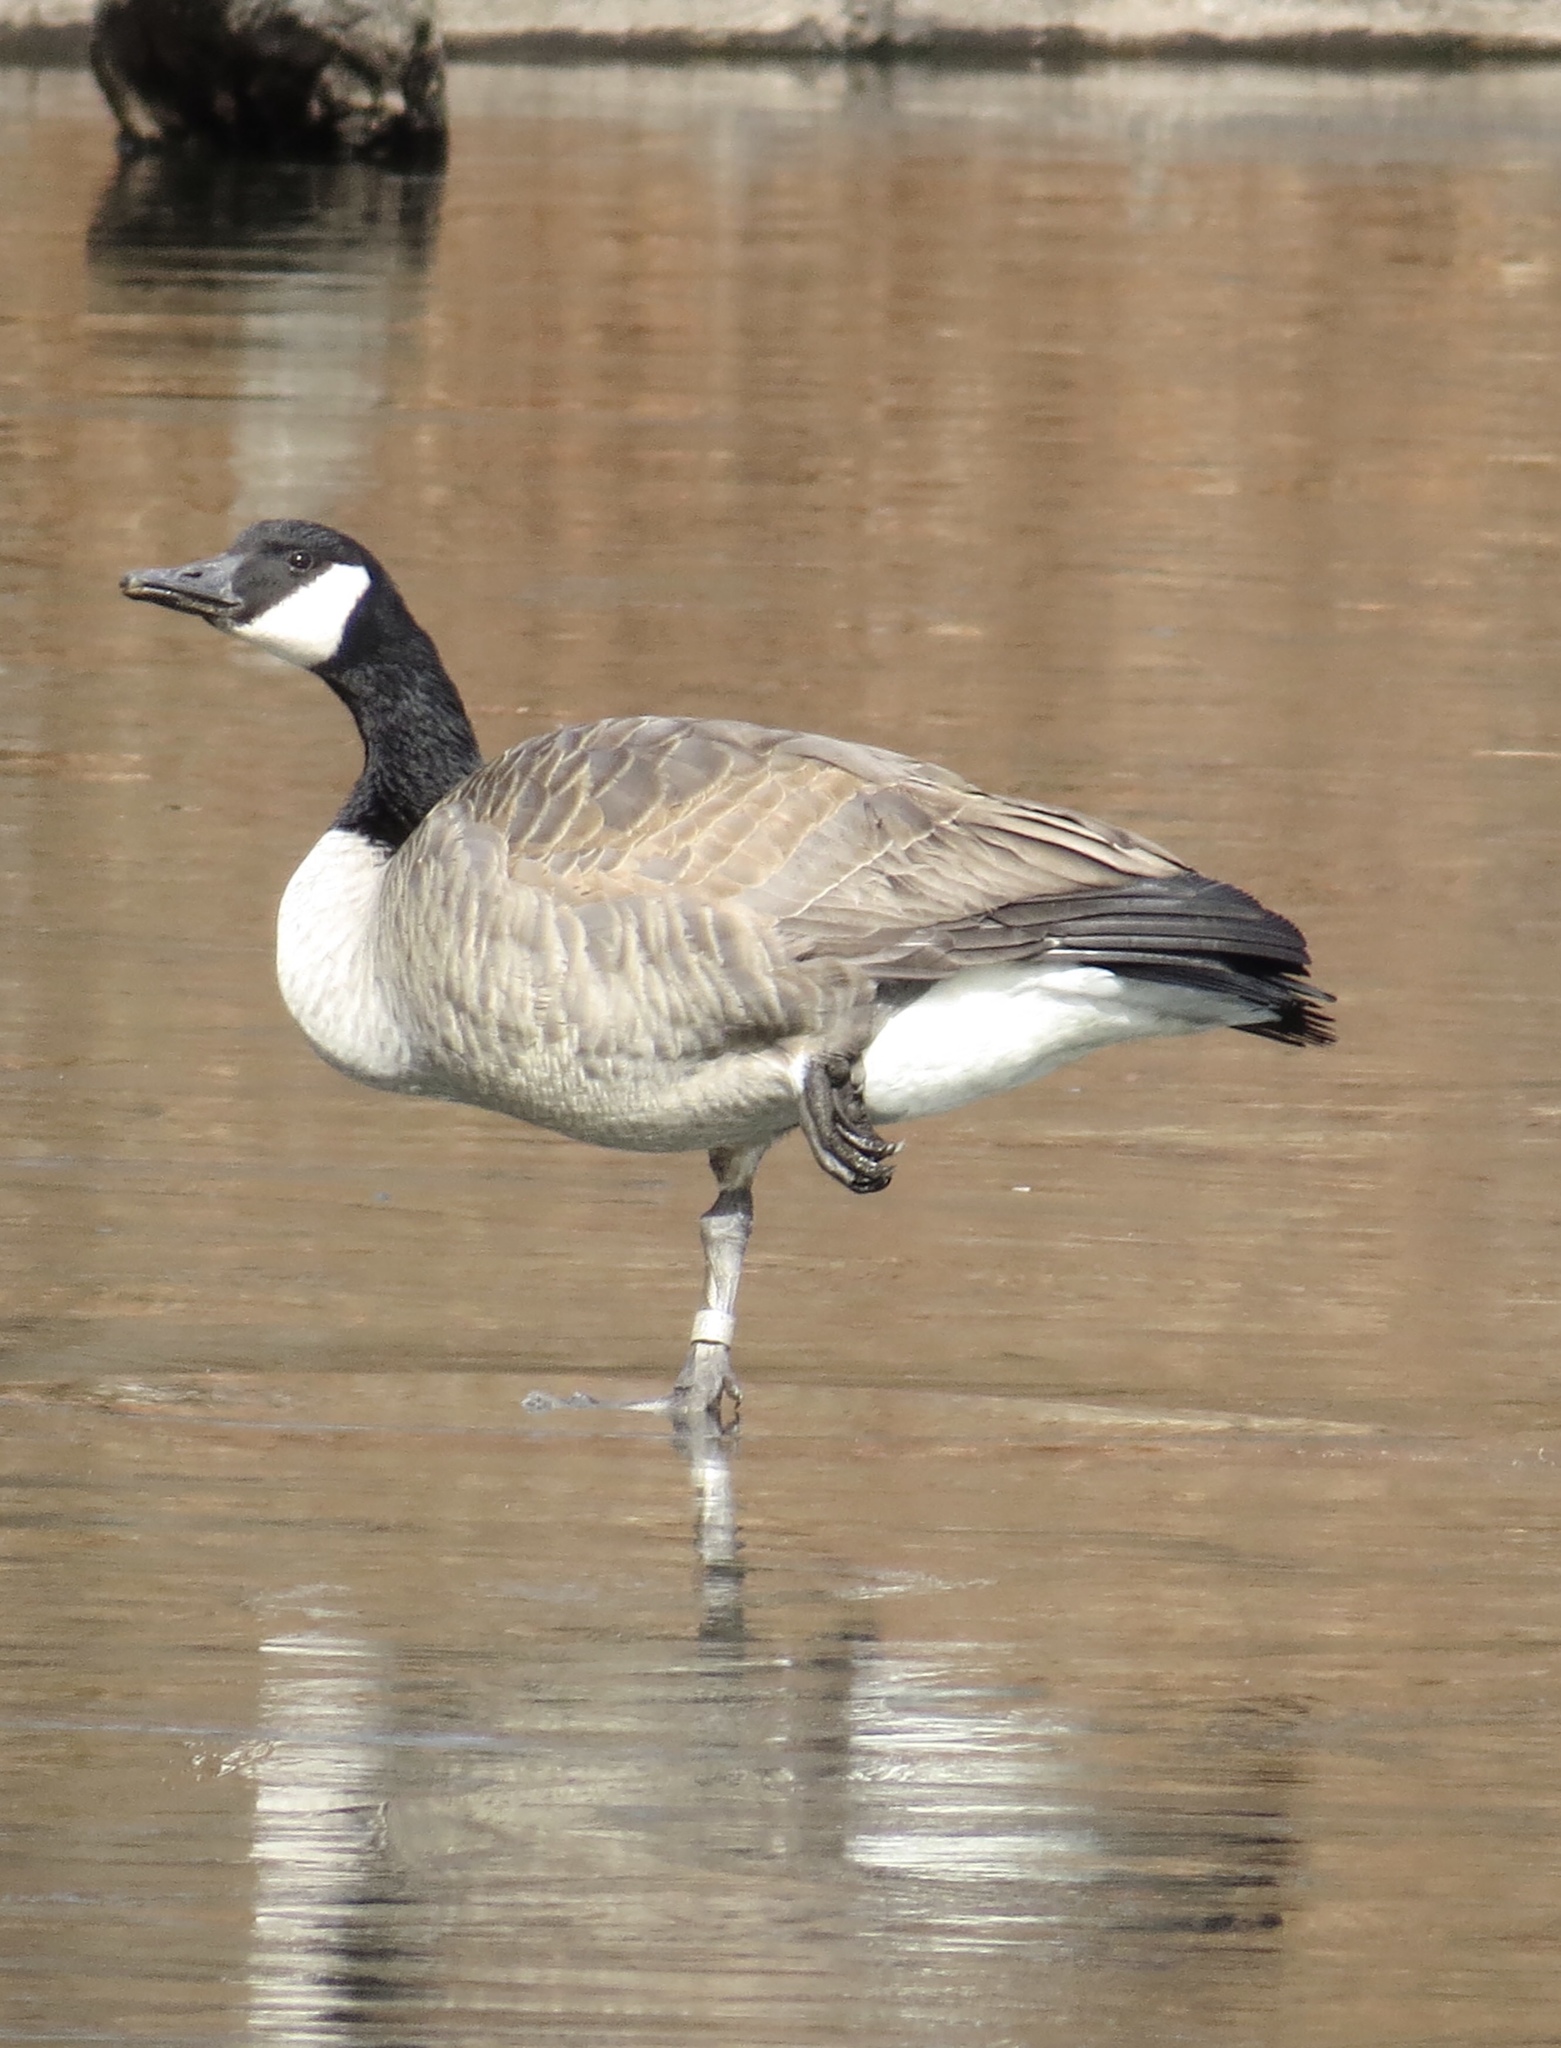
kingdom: Animalia
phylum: Chordata
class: Aves
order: Anseriformes
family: Anatidae
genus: Branta
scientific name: Branta canadensis
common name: Canada goose
